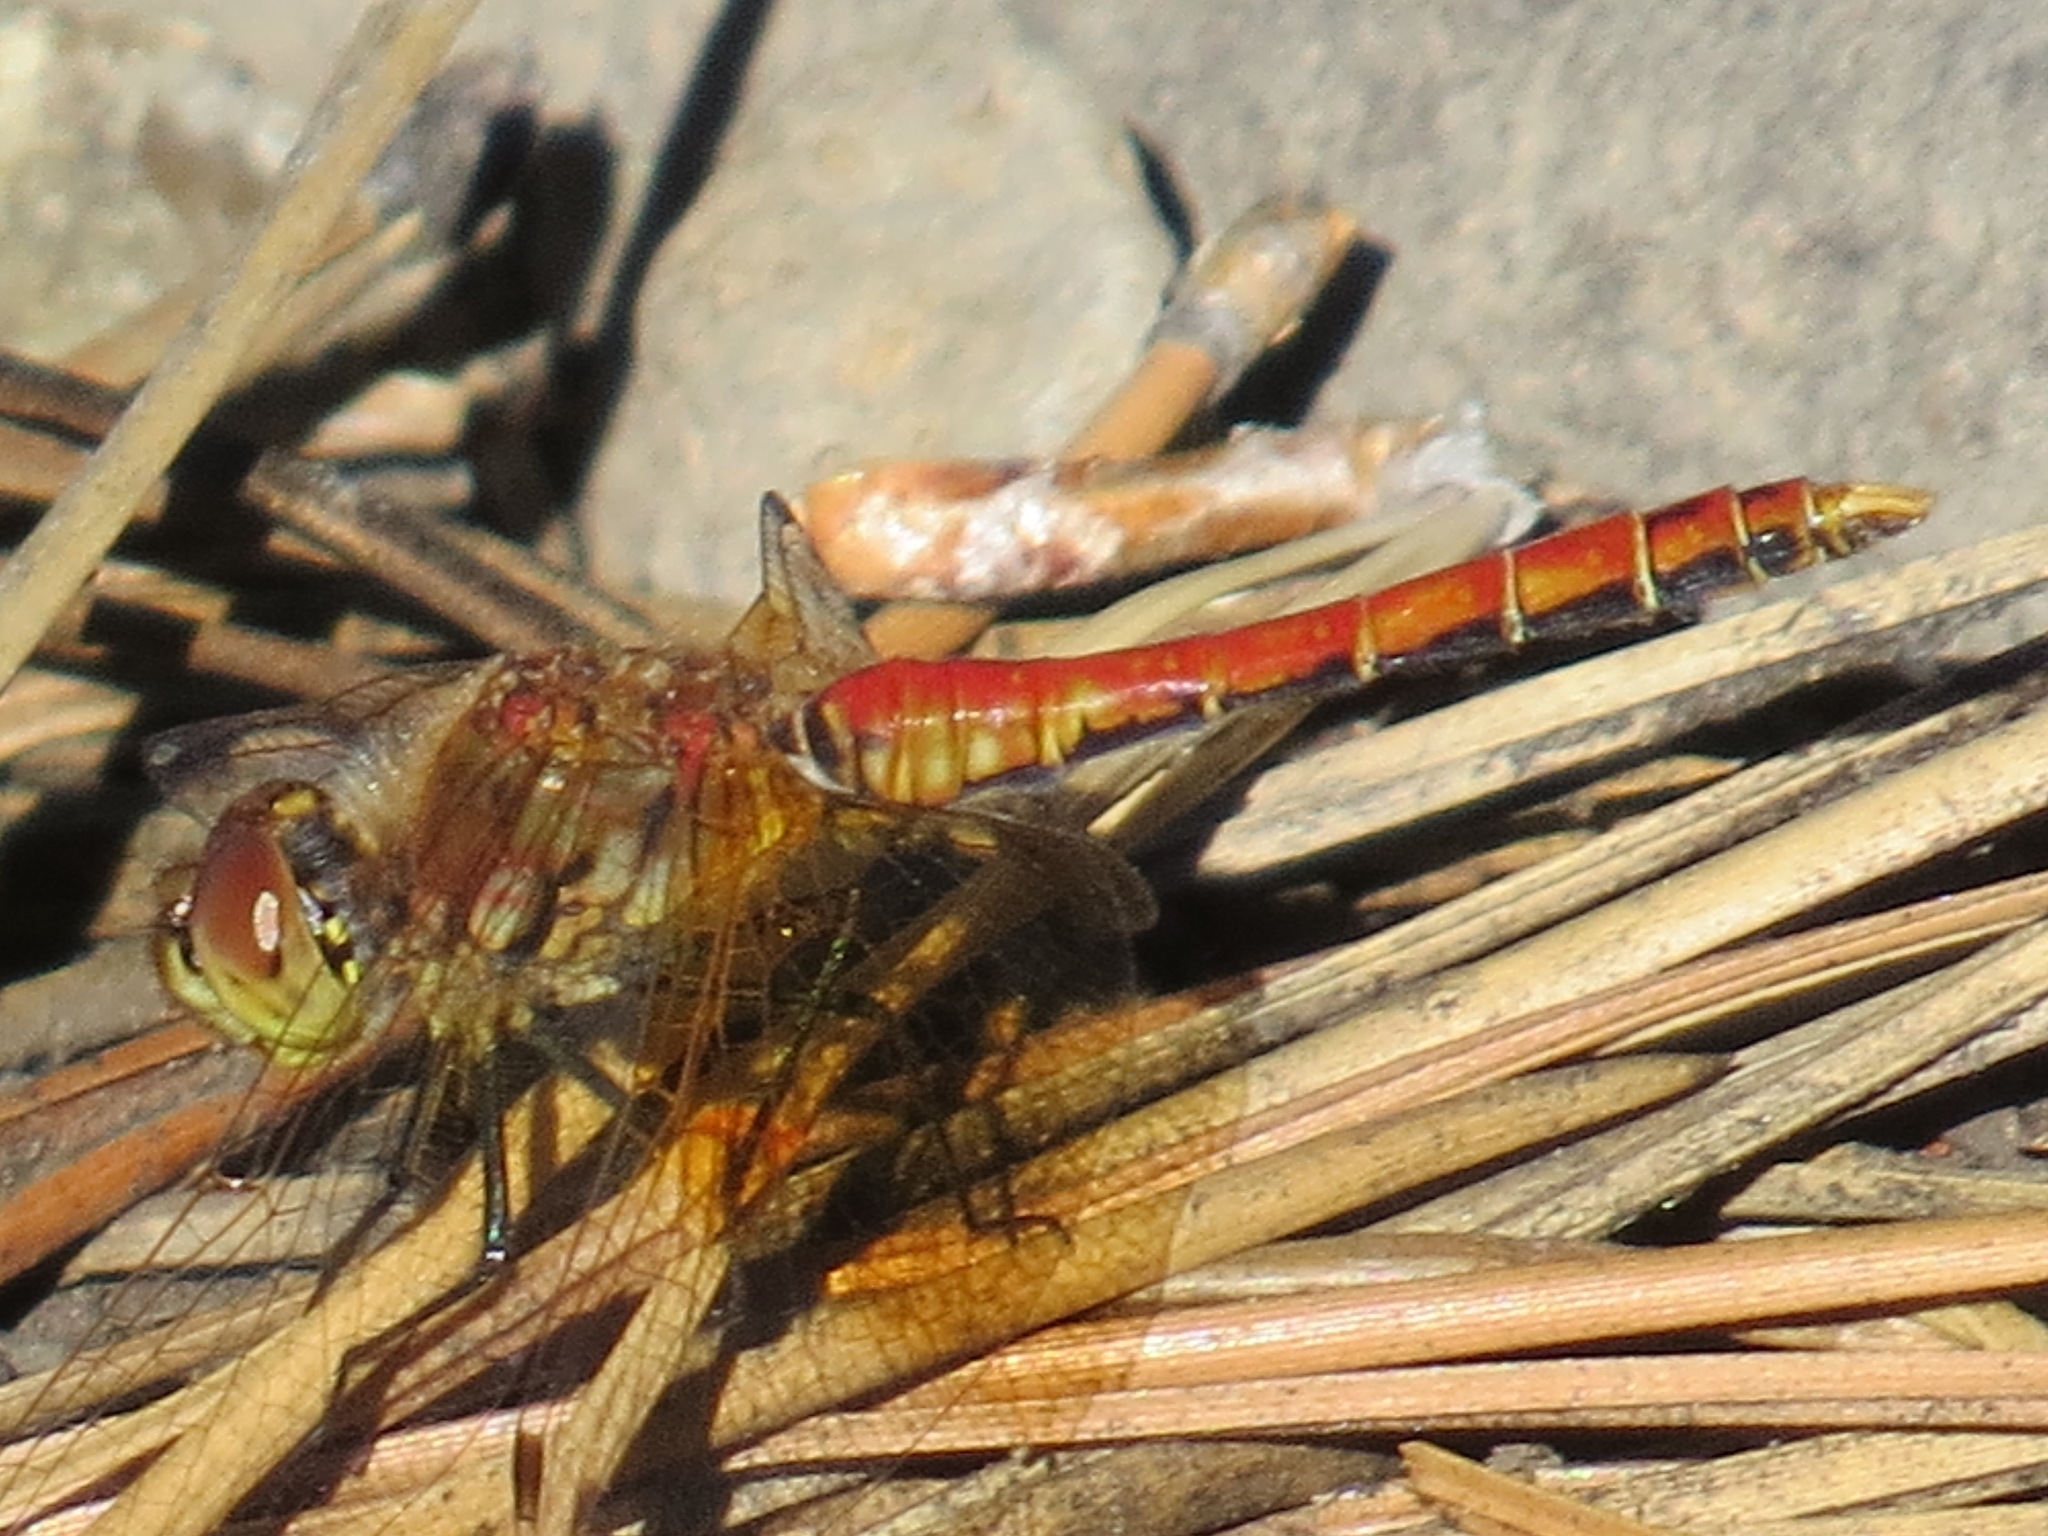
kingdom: Animalia
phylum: Arthropoda
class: Insecta
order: Odonata
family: Libellulidae
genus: Sympetrum
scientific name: Sympetrum semicinctum
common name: Band-winged meadowhawk
